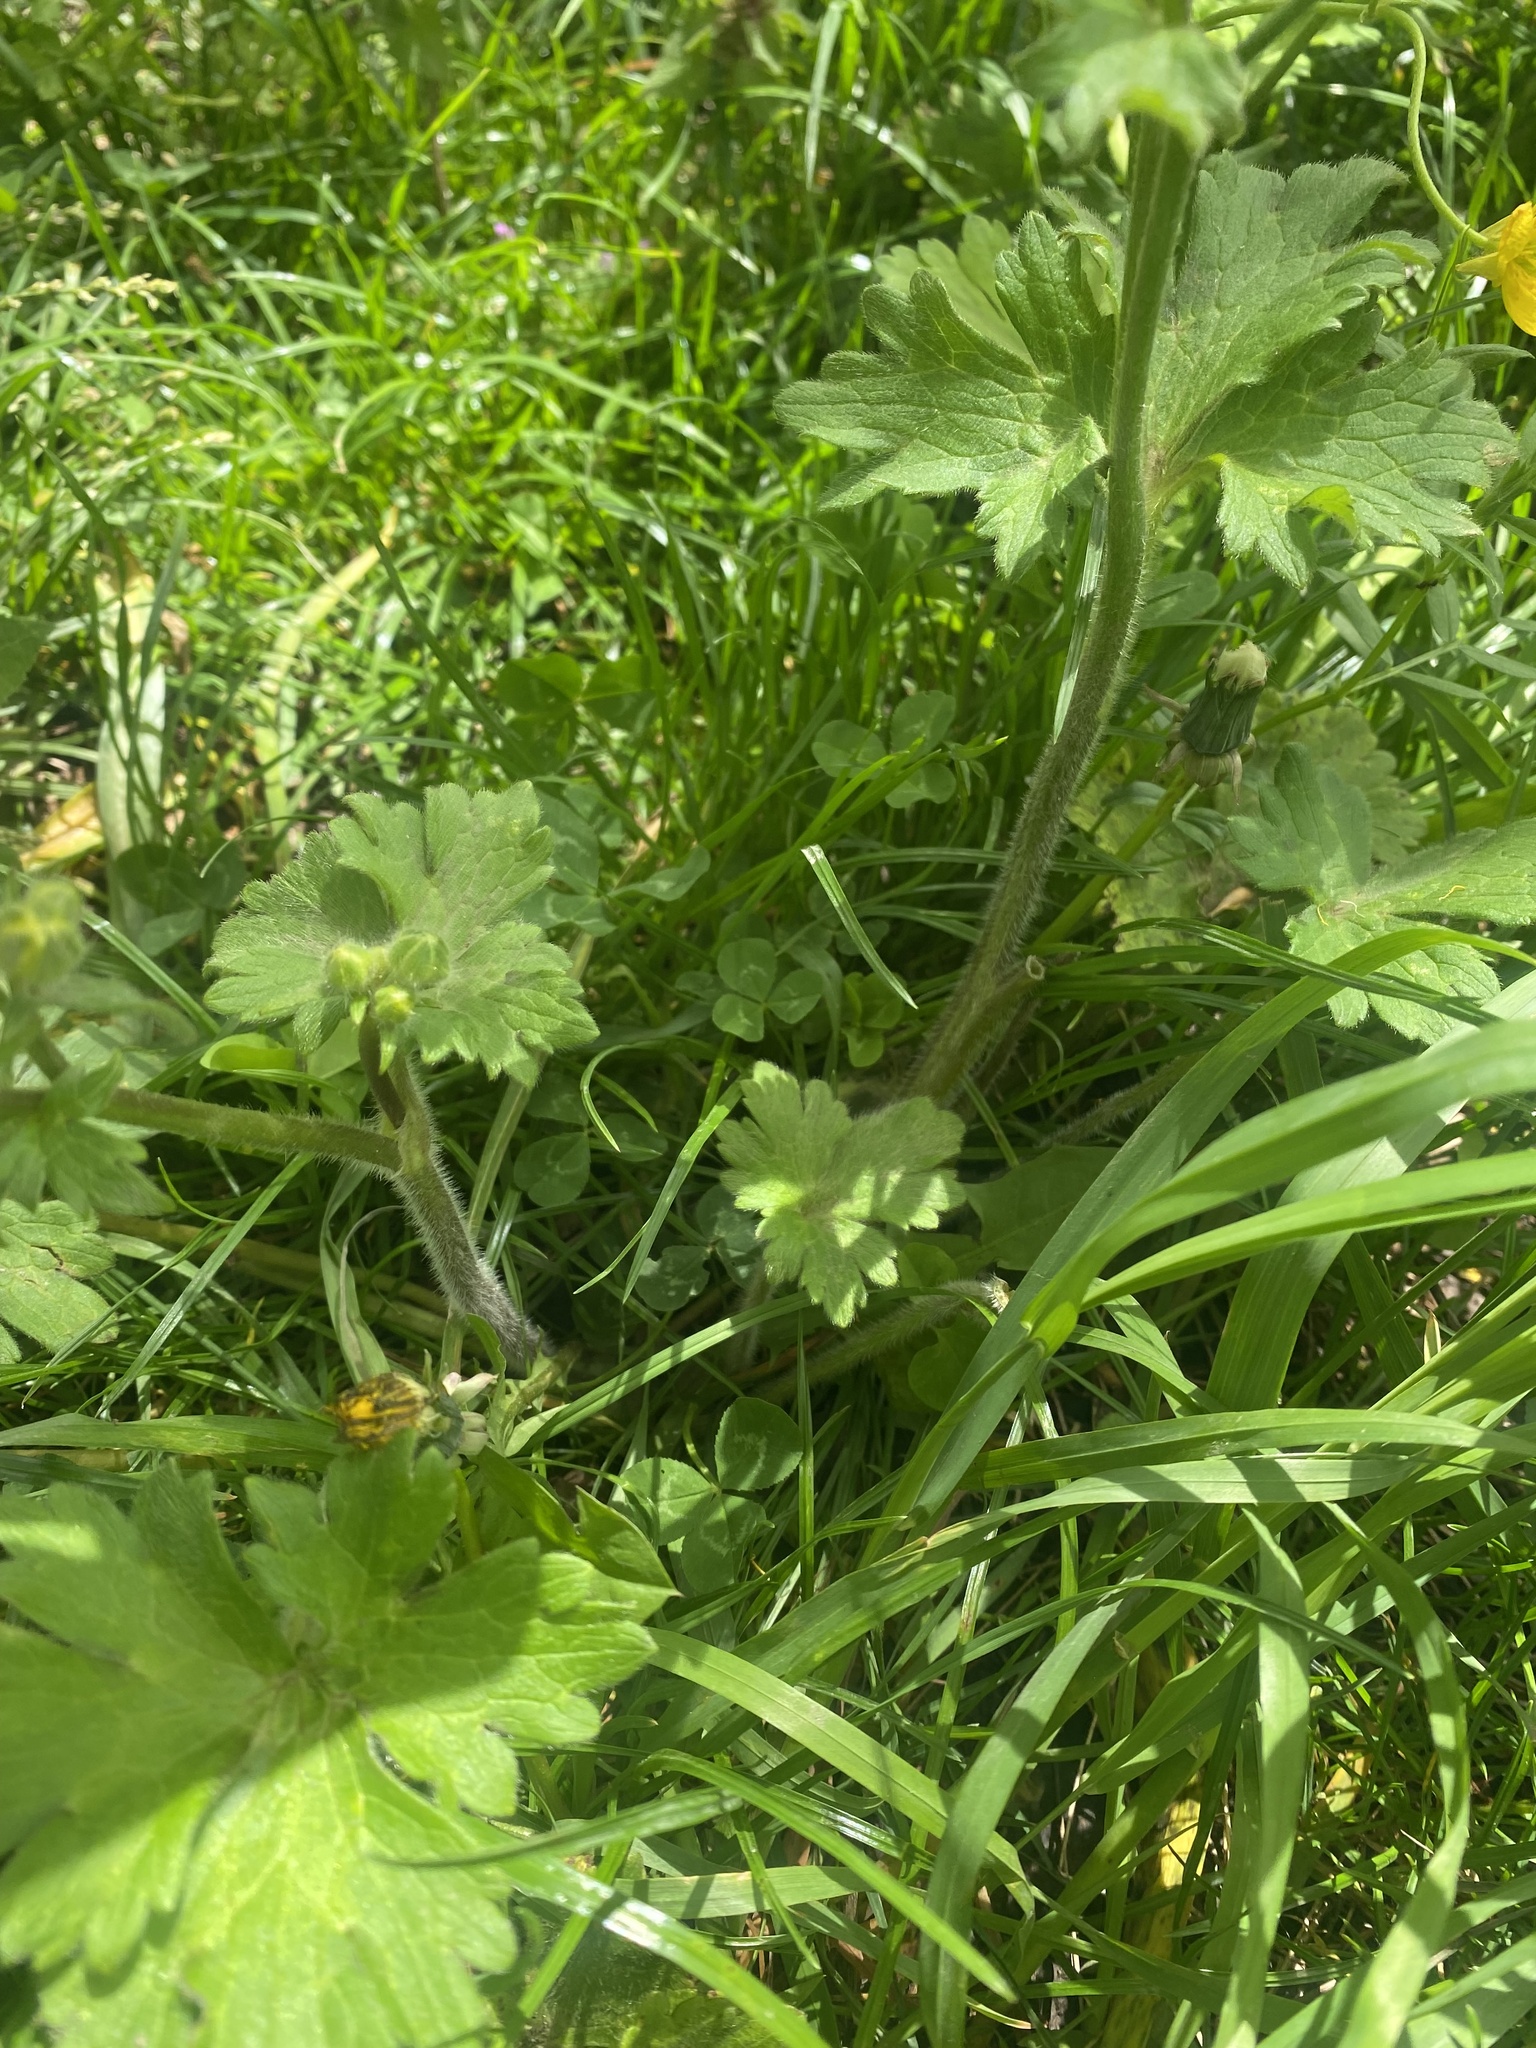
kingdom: Plantae
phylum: Tracheophyta
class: Magnoliopsida
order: Ranunculales
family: Ranunculaceae
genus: Ranunculus
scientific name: Ranunculus constantinopolitanus
